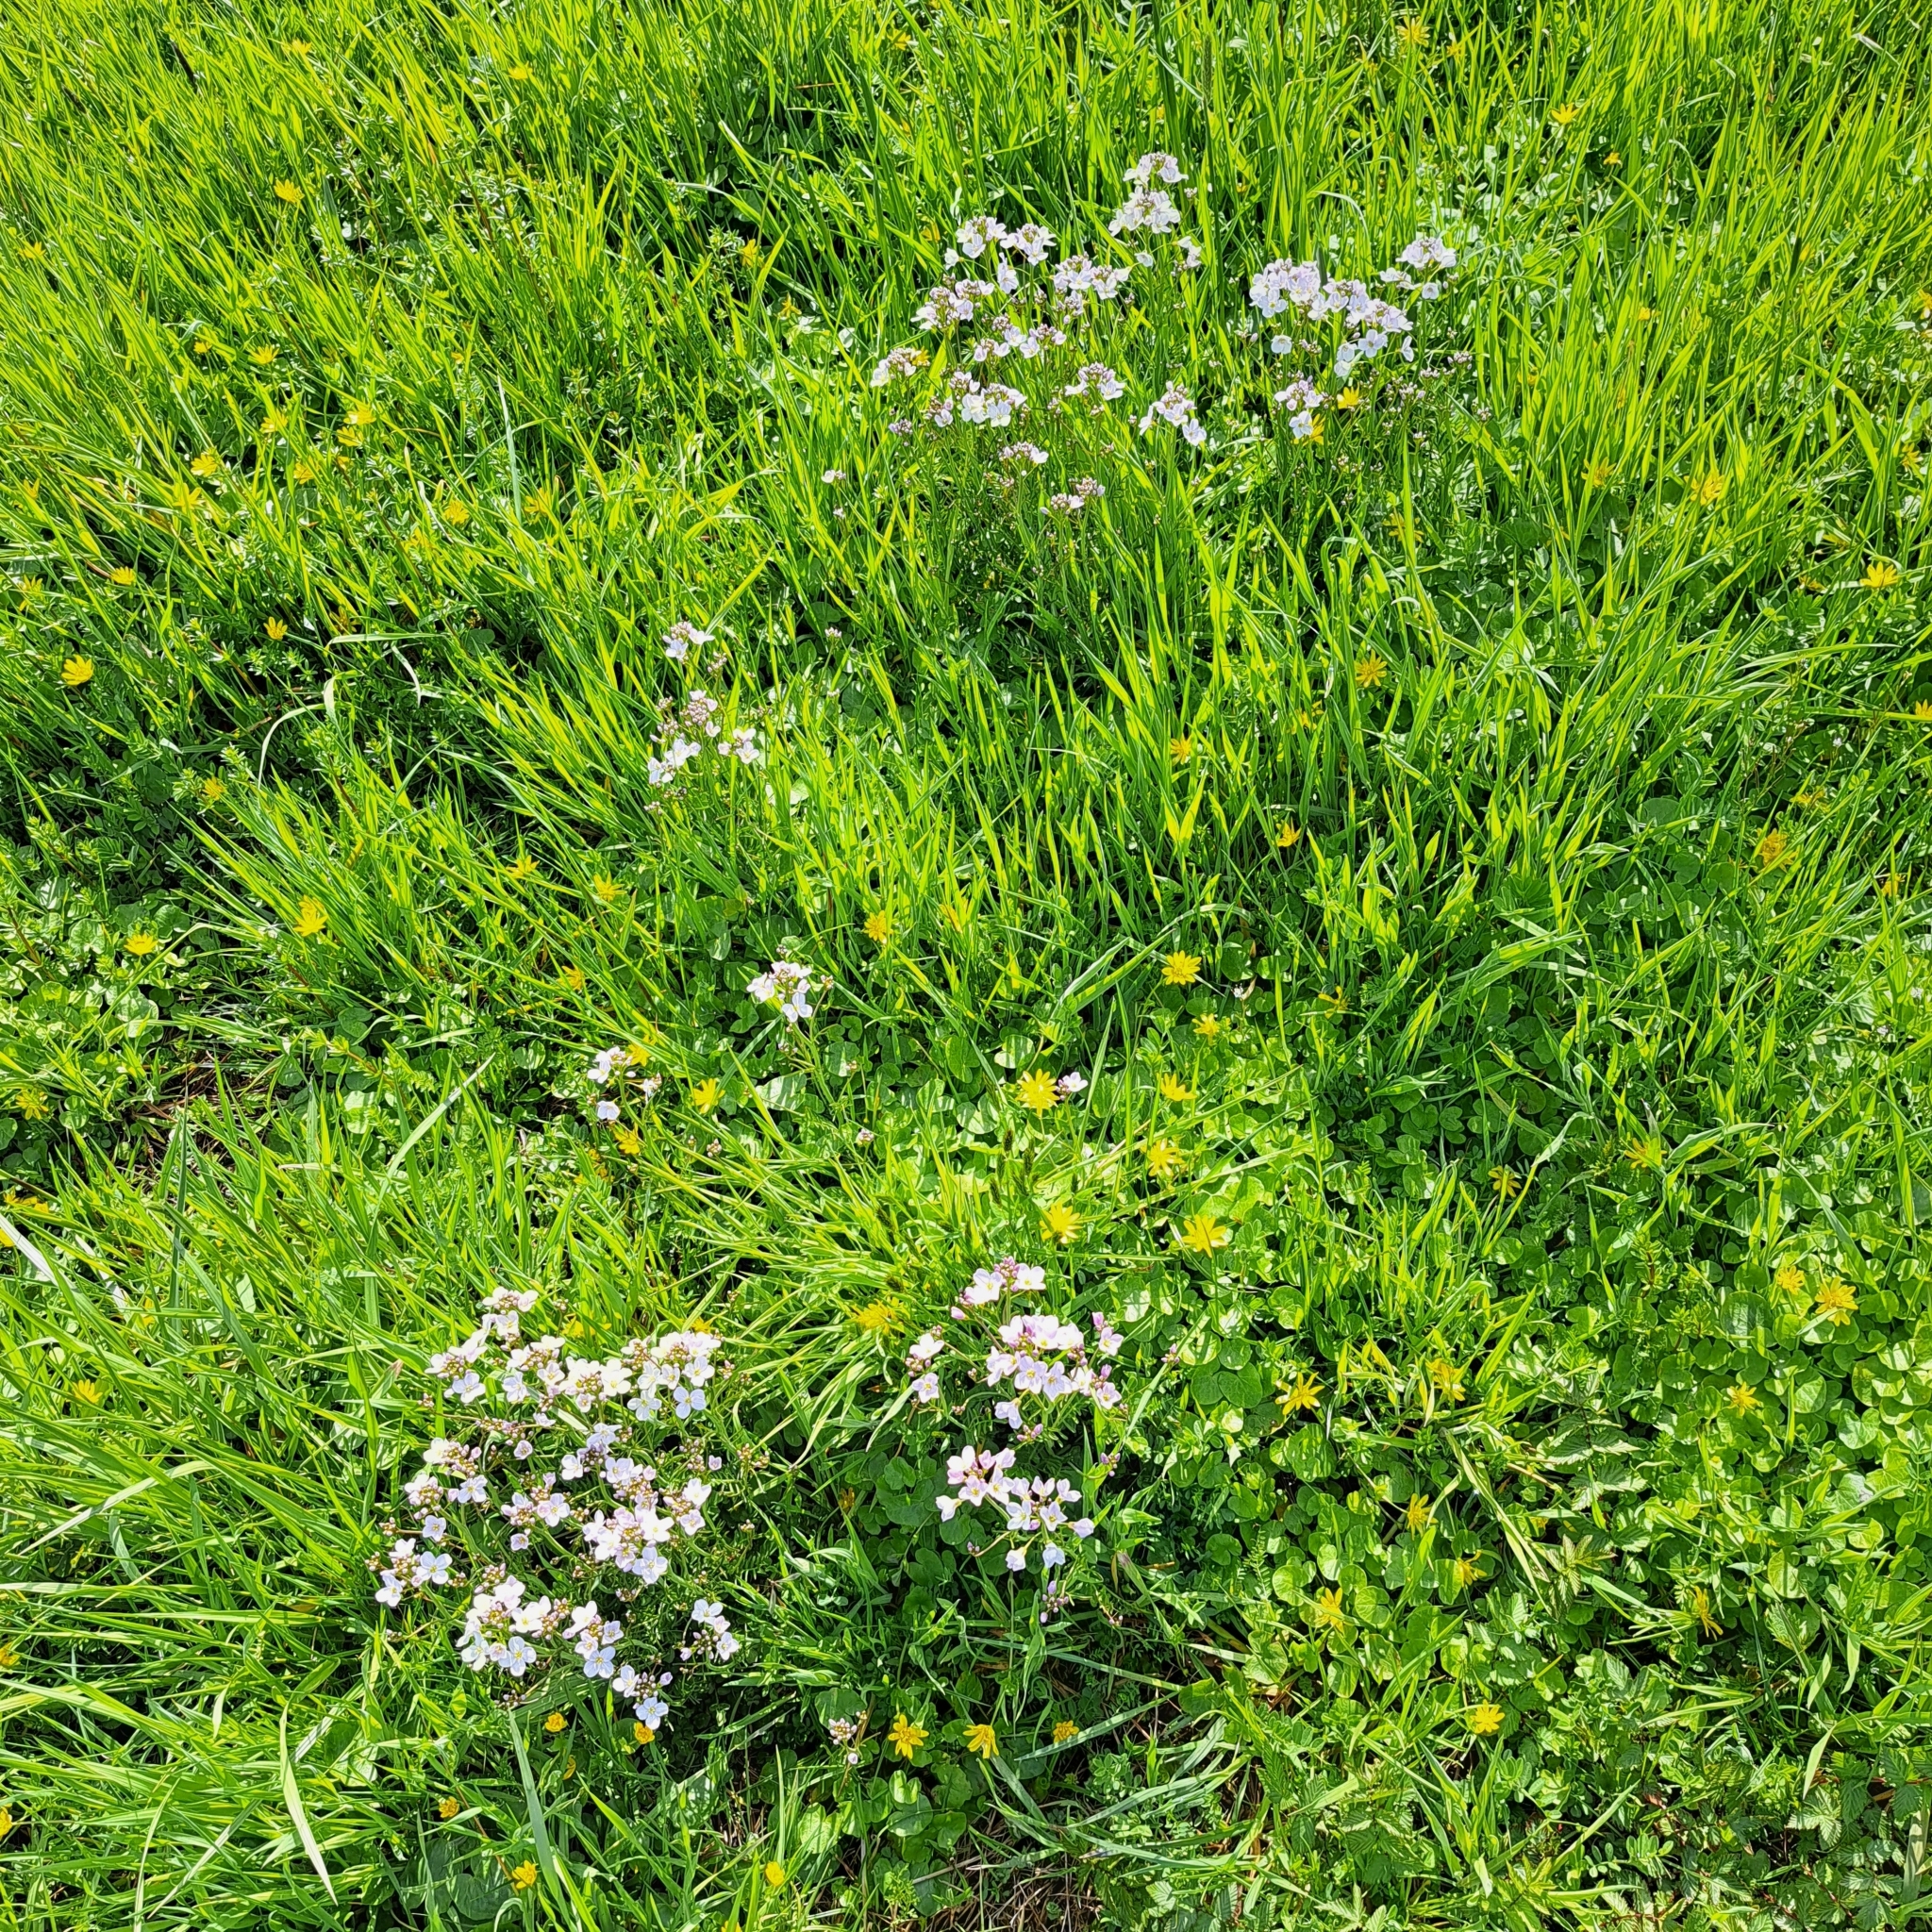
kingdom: Plantae
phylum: Tracheophyta
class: Magnoliopsida
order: Brassicales
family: Brassicaceae
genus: Cardamine
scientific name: Cardamine pratensis
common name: Cuckoo flower
